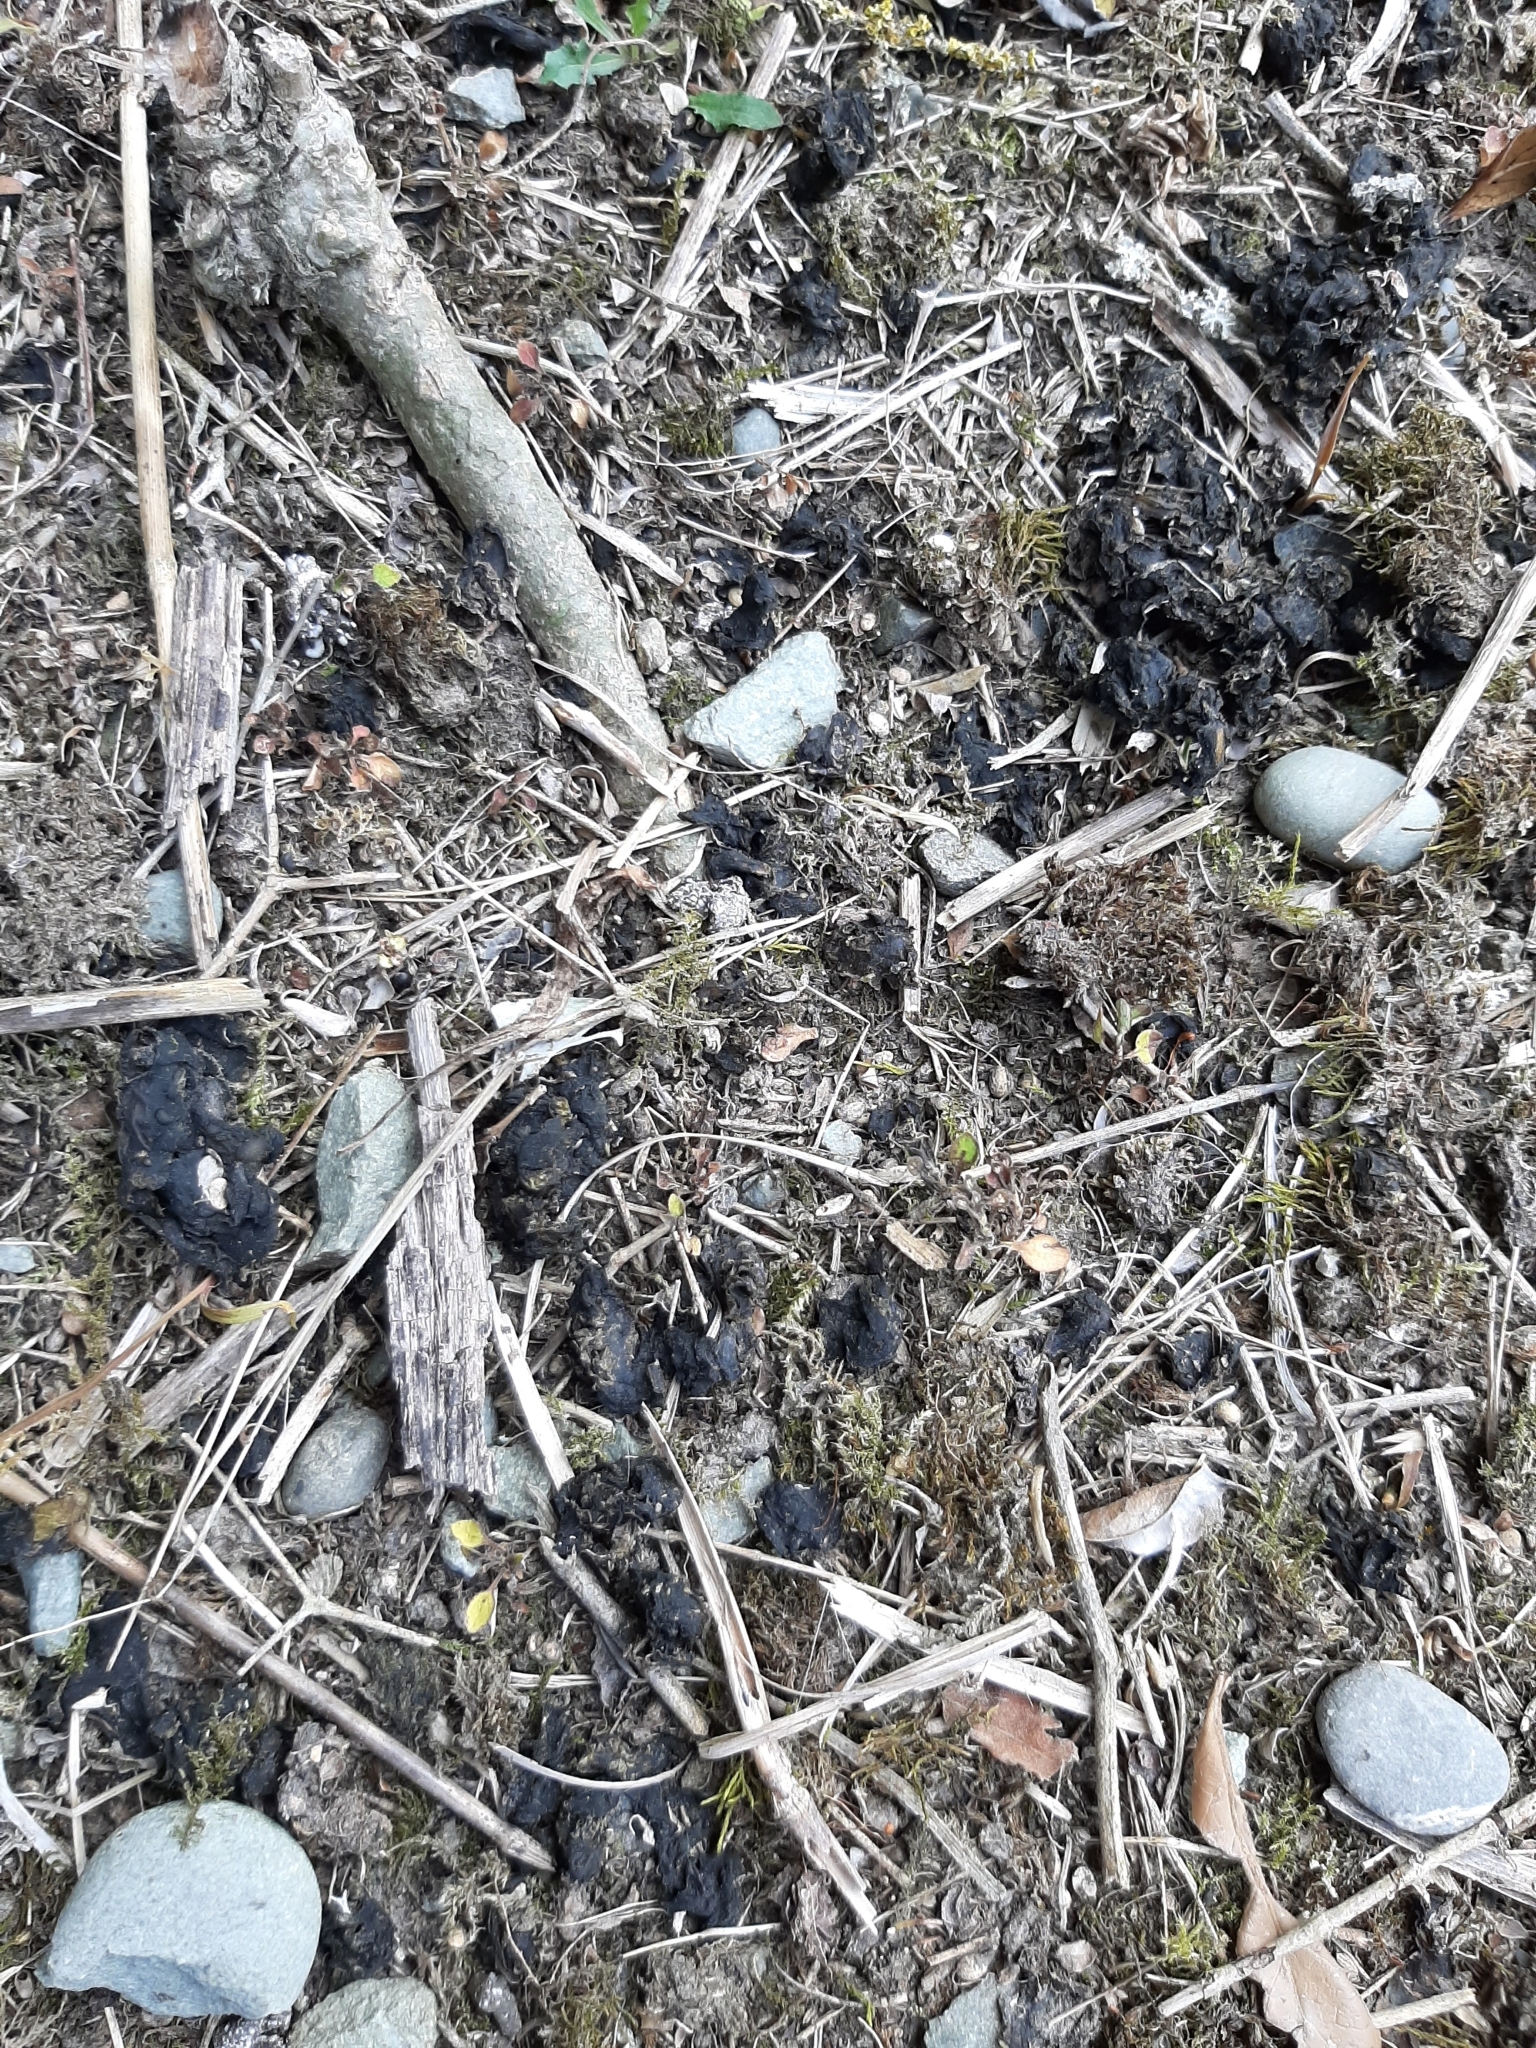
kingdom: Bacteria
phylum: Cyanobacteria
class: Cyanobacteriia
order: Cyanobacteriales
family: Nostocaceae
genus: Nostoc
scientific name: Nostoc commune
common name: Star jelly
